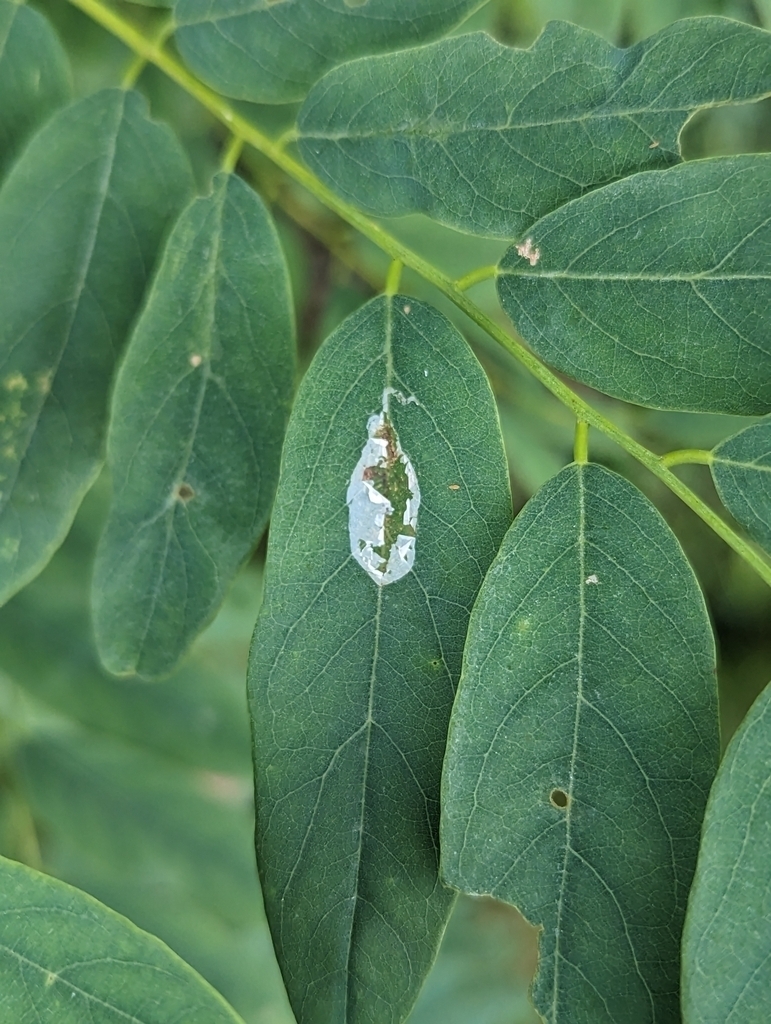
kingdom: Animalia
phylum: Arthropoda
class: Insecta
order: Lepidoptera
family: Gracillariidae
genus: Macrosaccus
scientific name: Macrosaccus robiniella
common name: Leaf blotch miner moth
